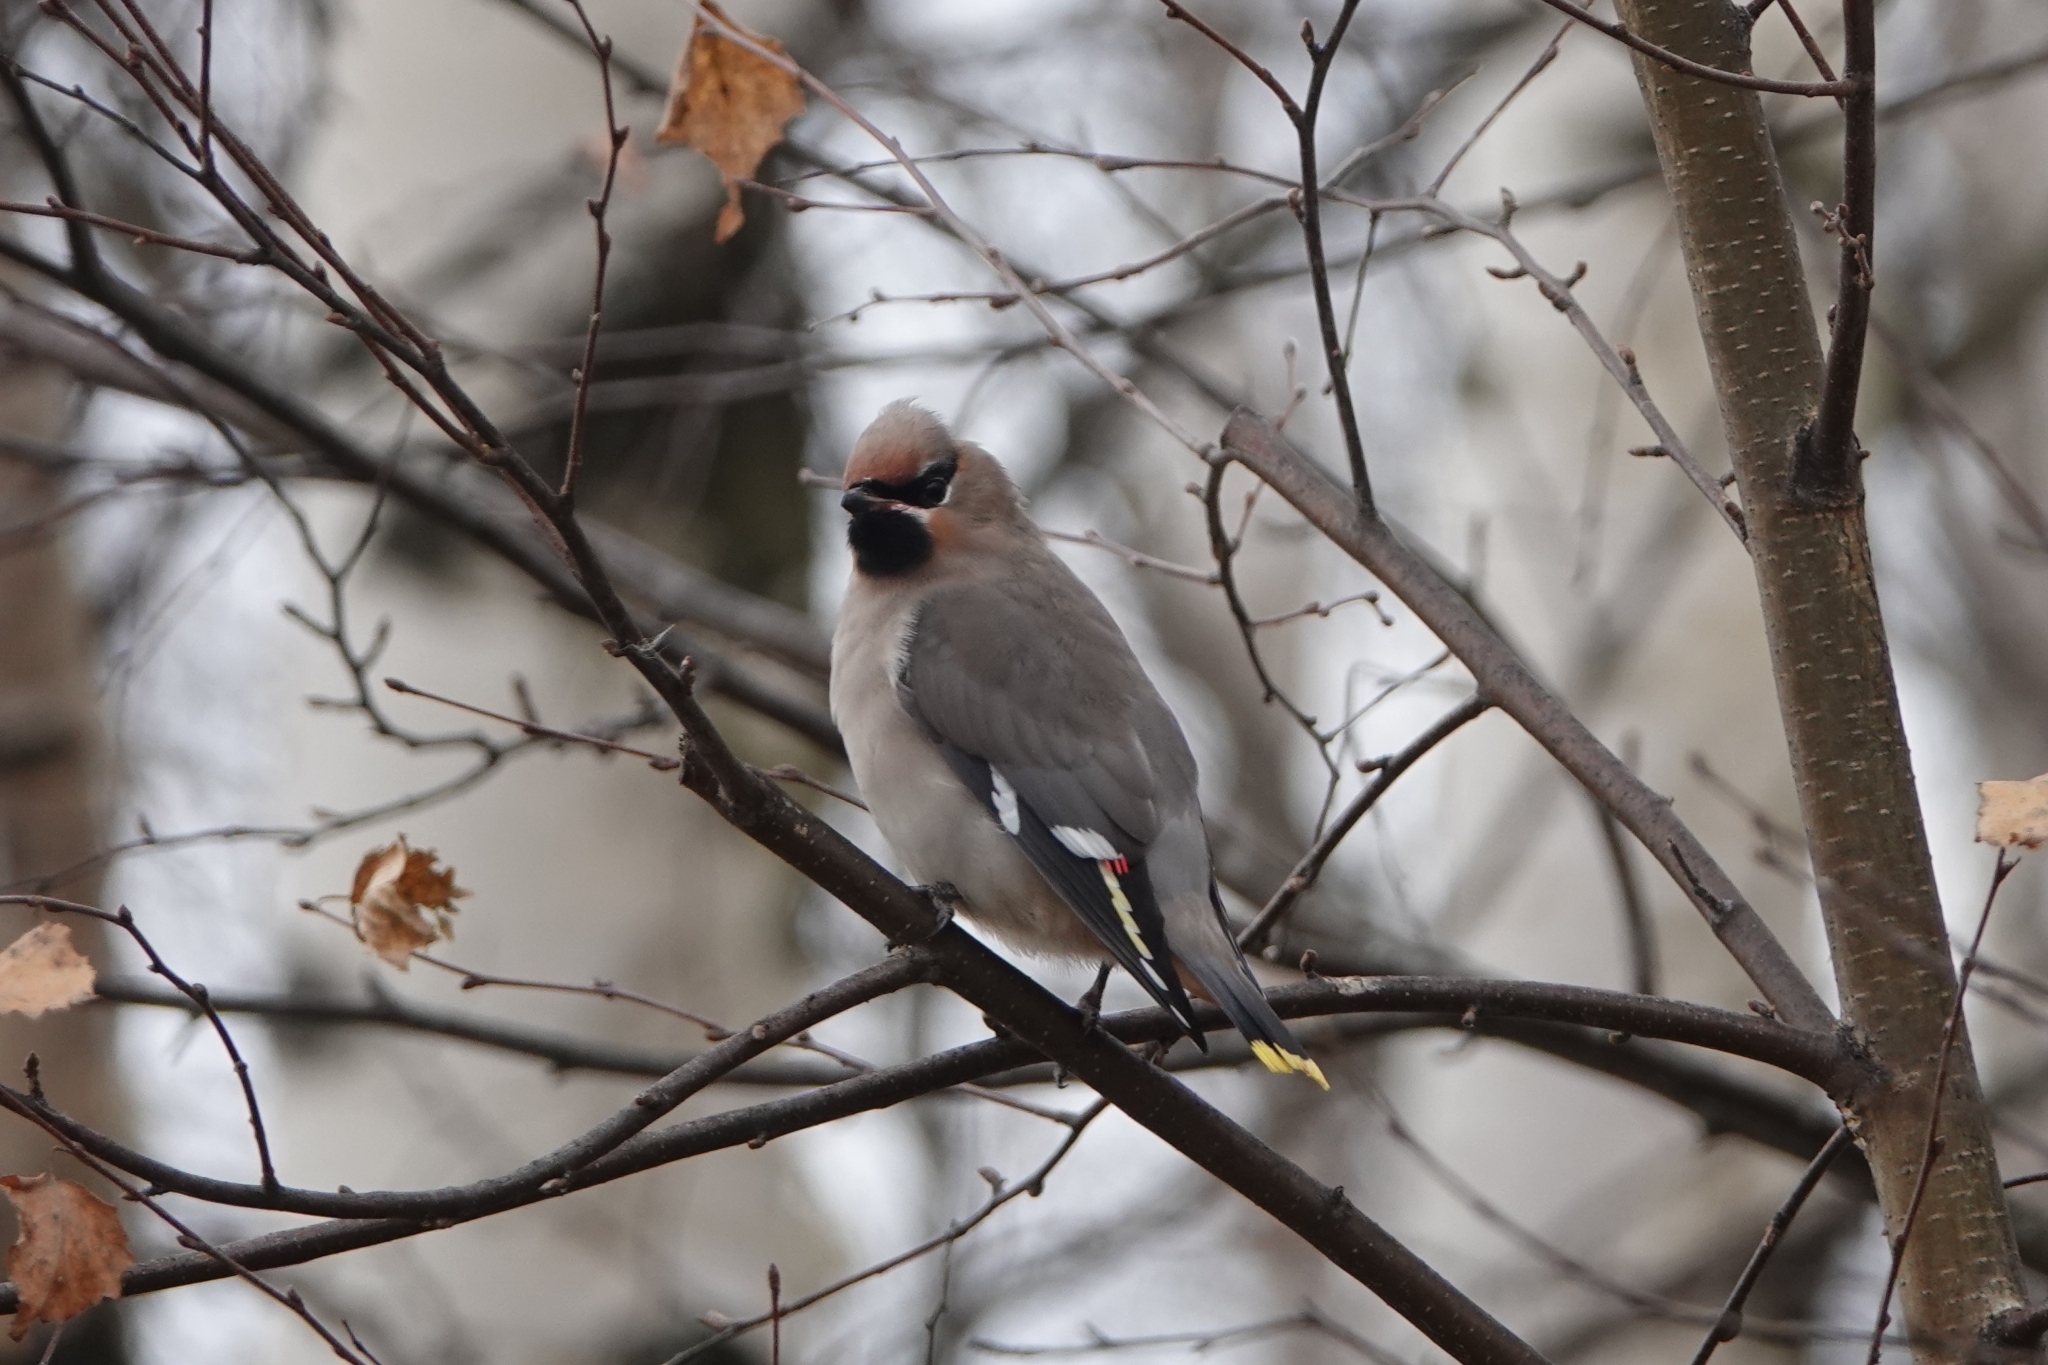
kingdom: Animalia
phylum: Chordata
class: Aves
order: Passeriformes
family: Bombycillidae
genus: Bombycilla
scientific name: Bombycilla garrulus
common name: Bohemian waxwing
